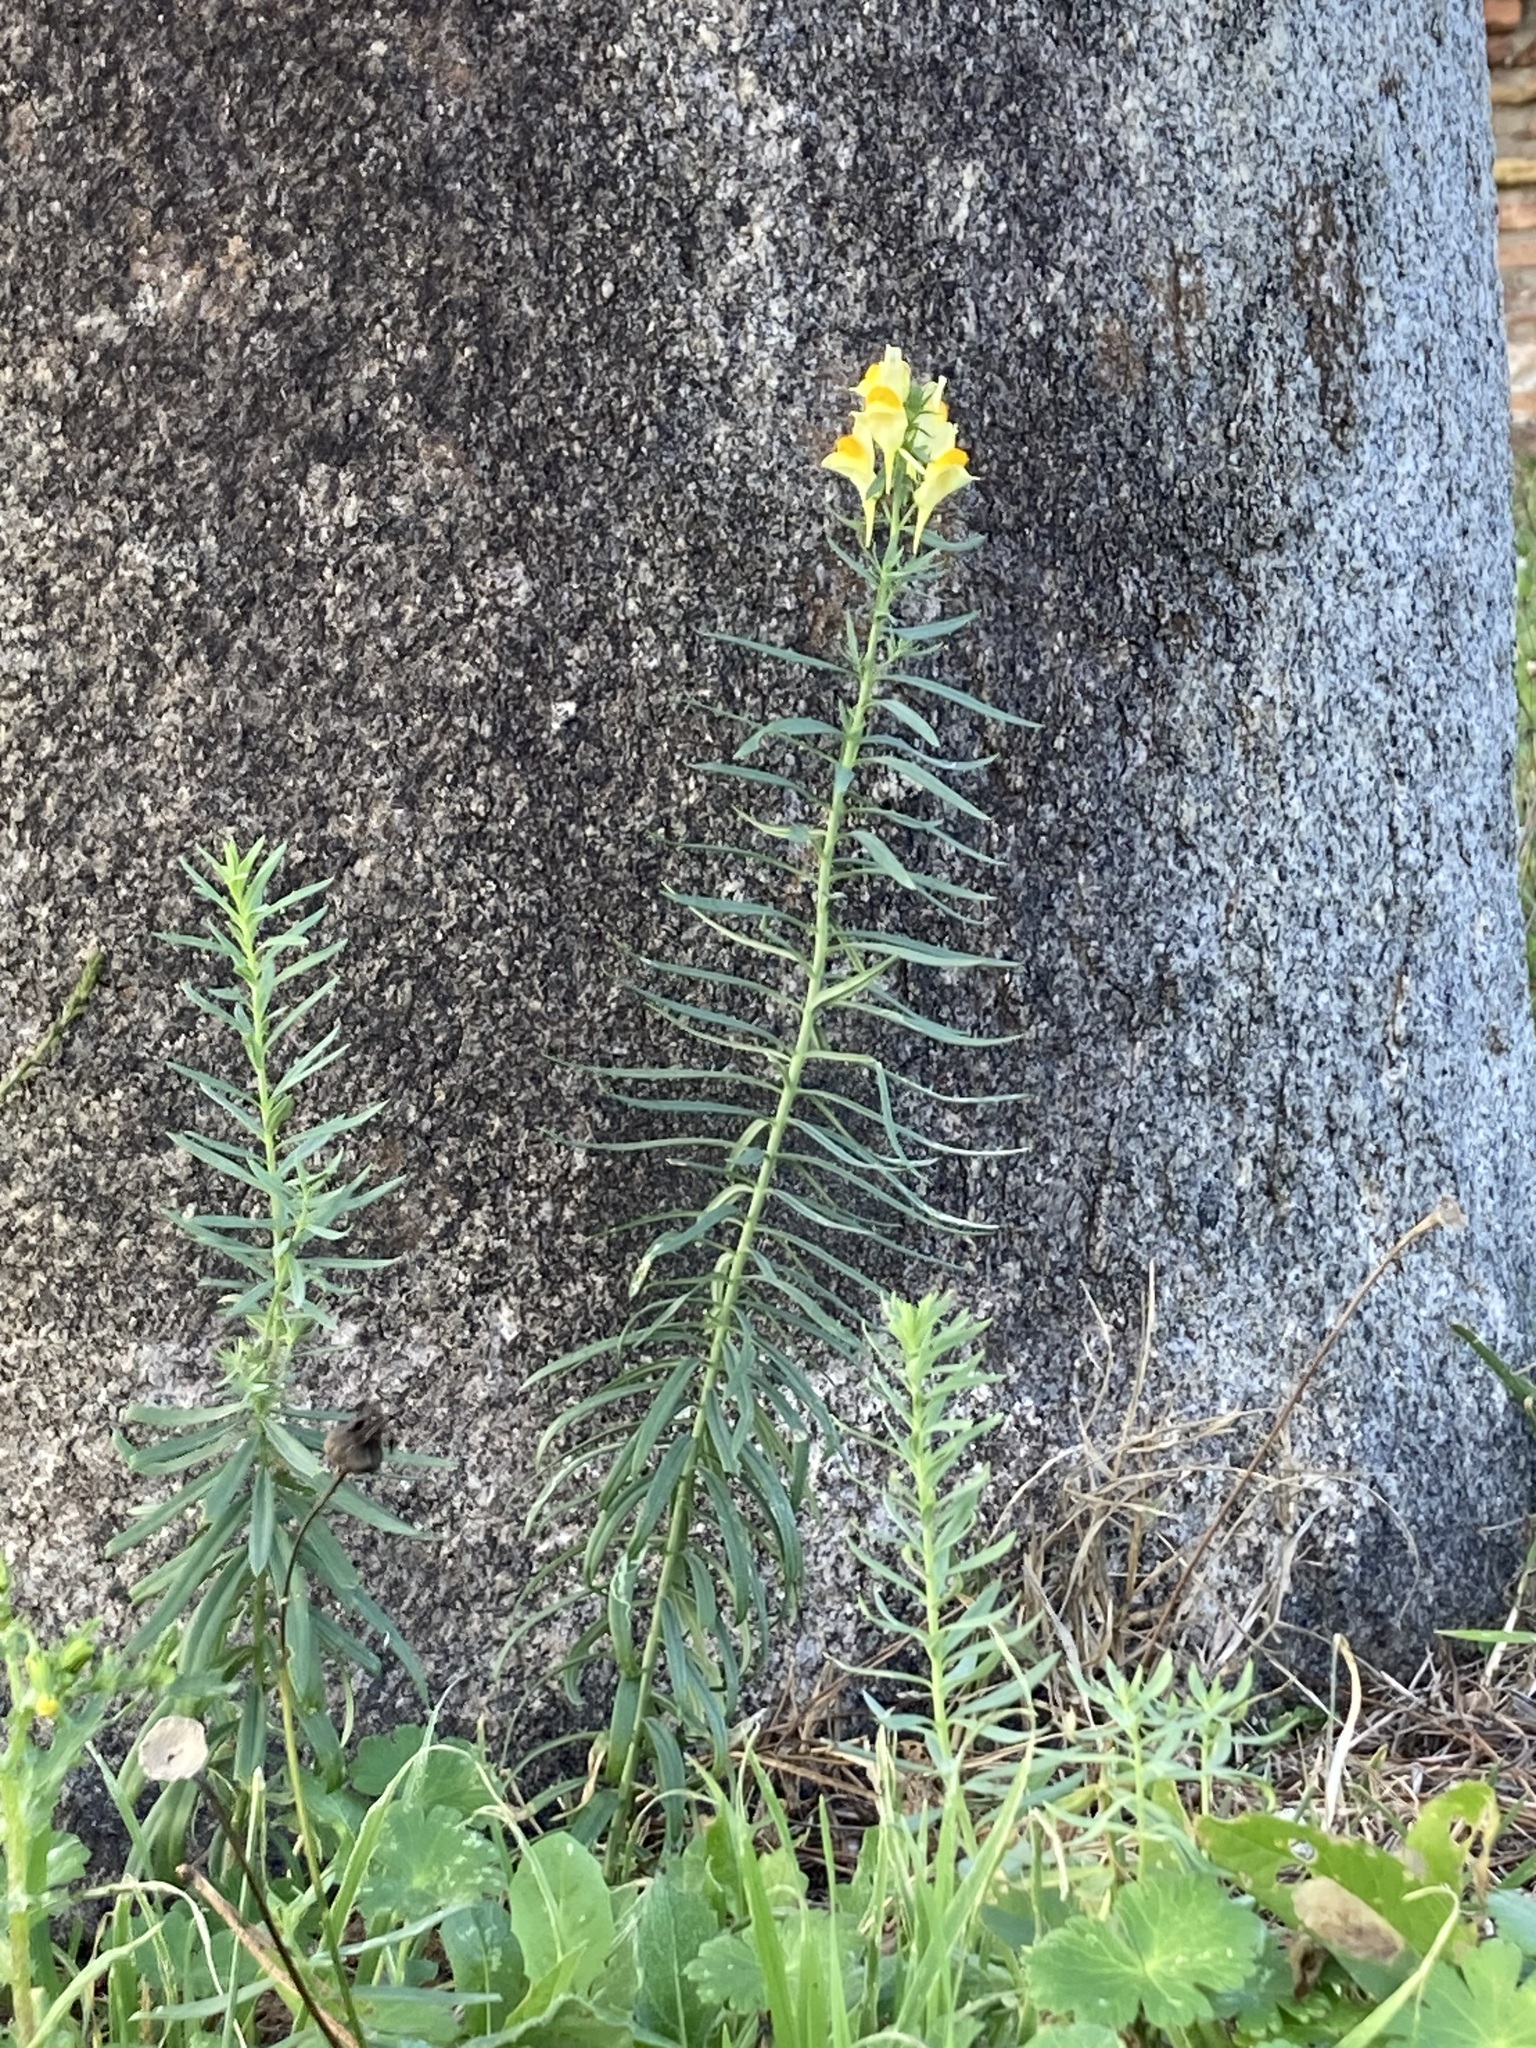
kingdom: Plantae
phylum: Tracheophyta
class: Magnoliopsida
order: Lamiales
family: Plantaginaceae
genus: Linaria
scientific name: Linaria vulgaris
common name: Butter and eggs
